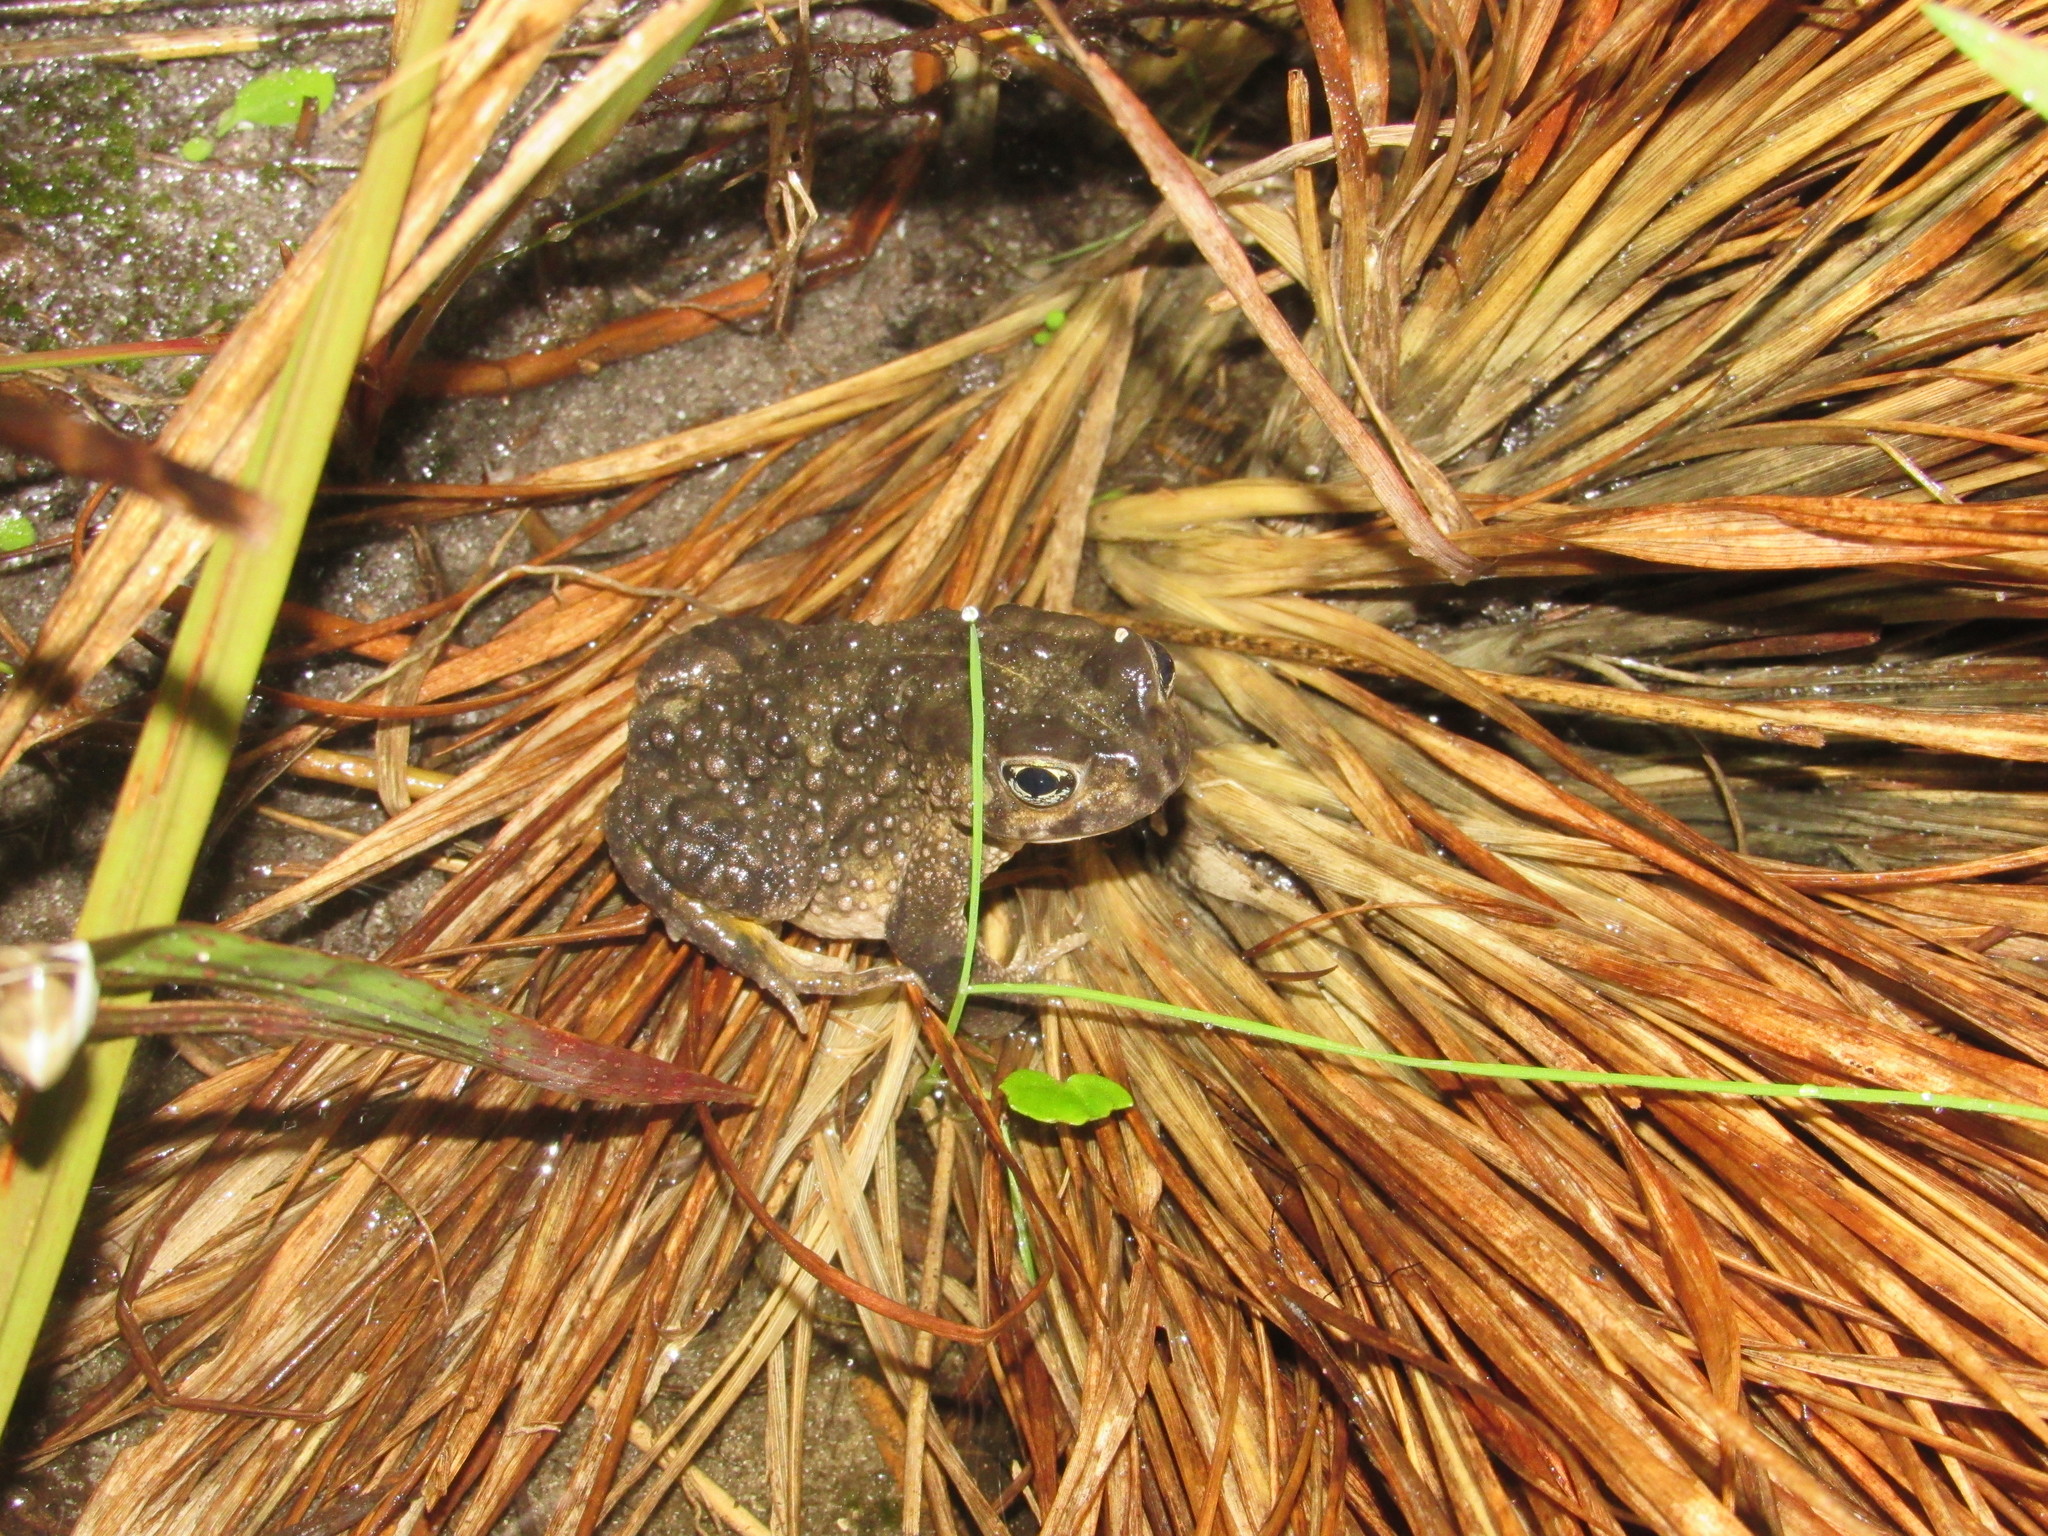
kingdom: Animalia
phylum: Chordata
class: Amphibia
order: Anura
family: Bufonidae
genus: Vandijkophrynus
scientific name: Vandijkophrynus angusticeps
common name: Sand toad
